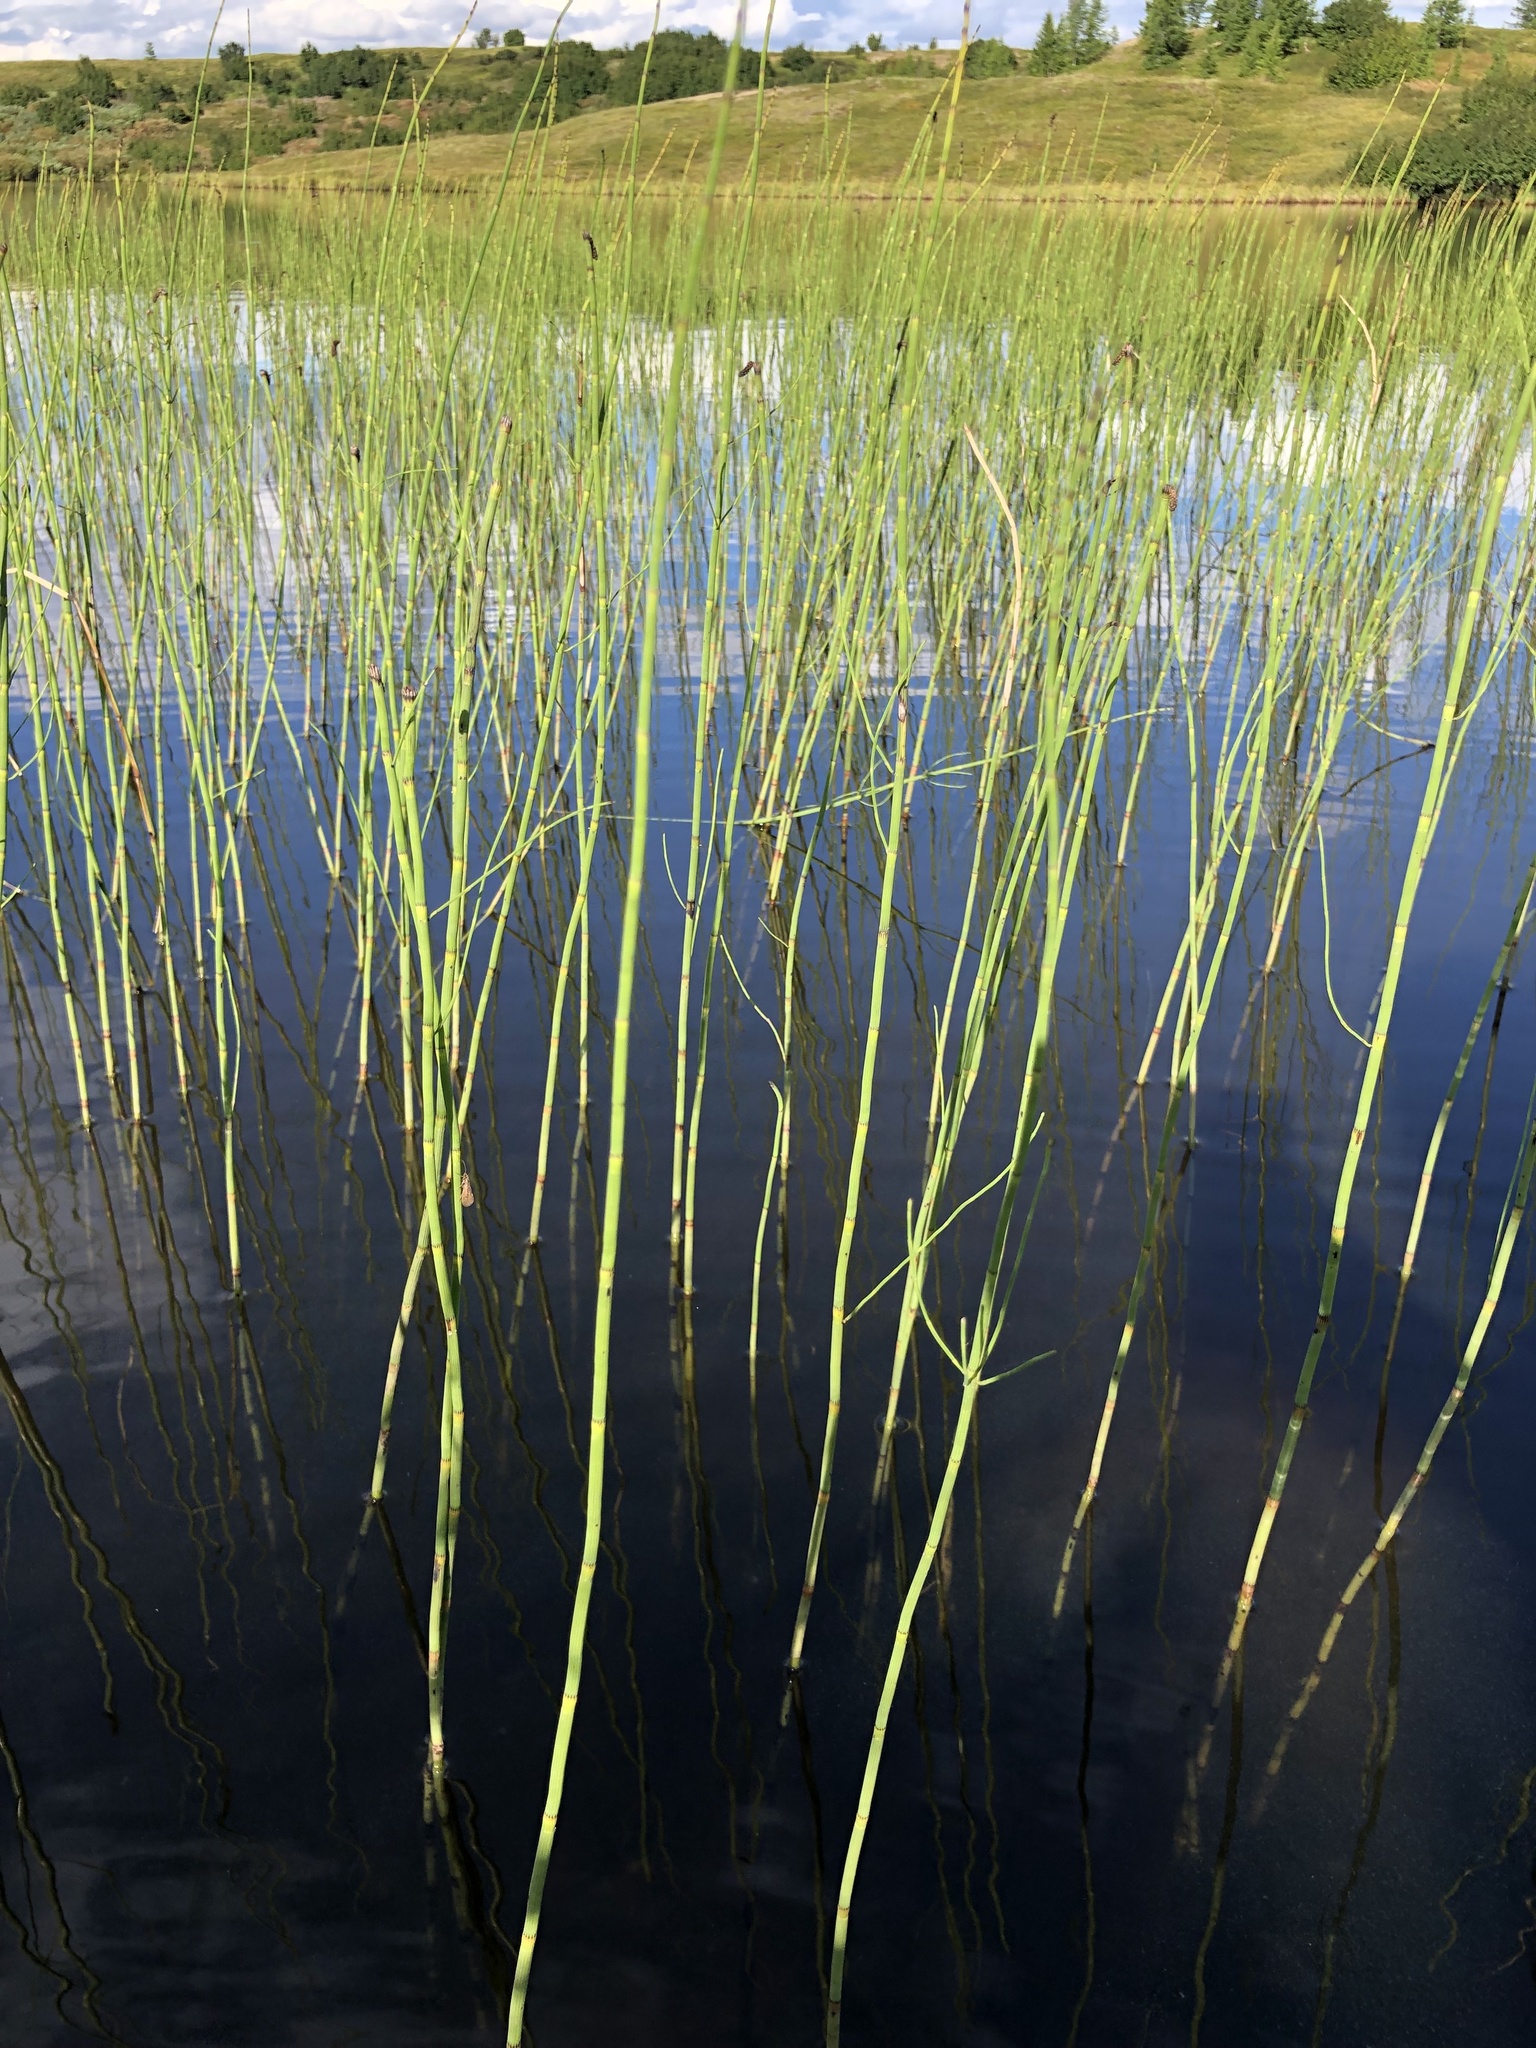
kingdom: Plantae
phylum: Tracheophyta
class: Polypodiopsida
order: Equisetales
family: Equisetaceae
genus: Equisetum
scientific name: Equisetum fluviatile
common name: Water horsetail
